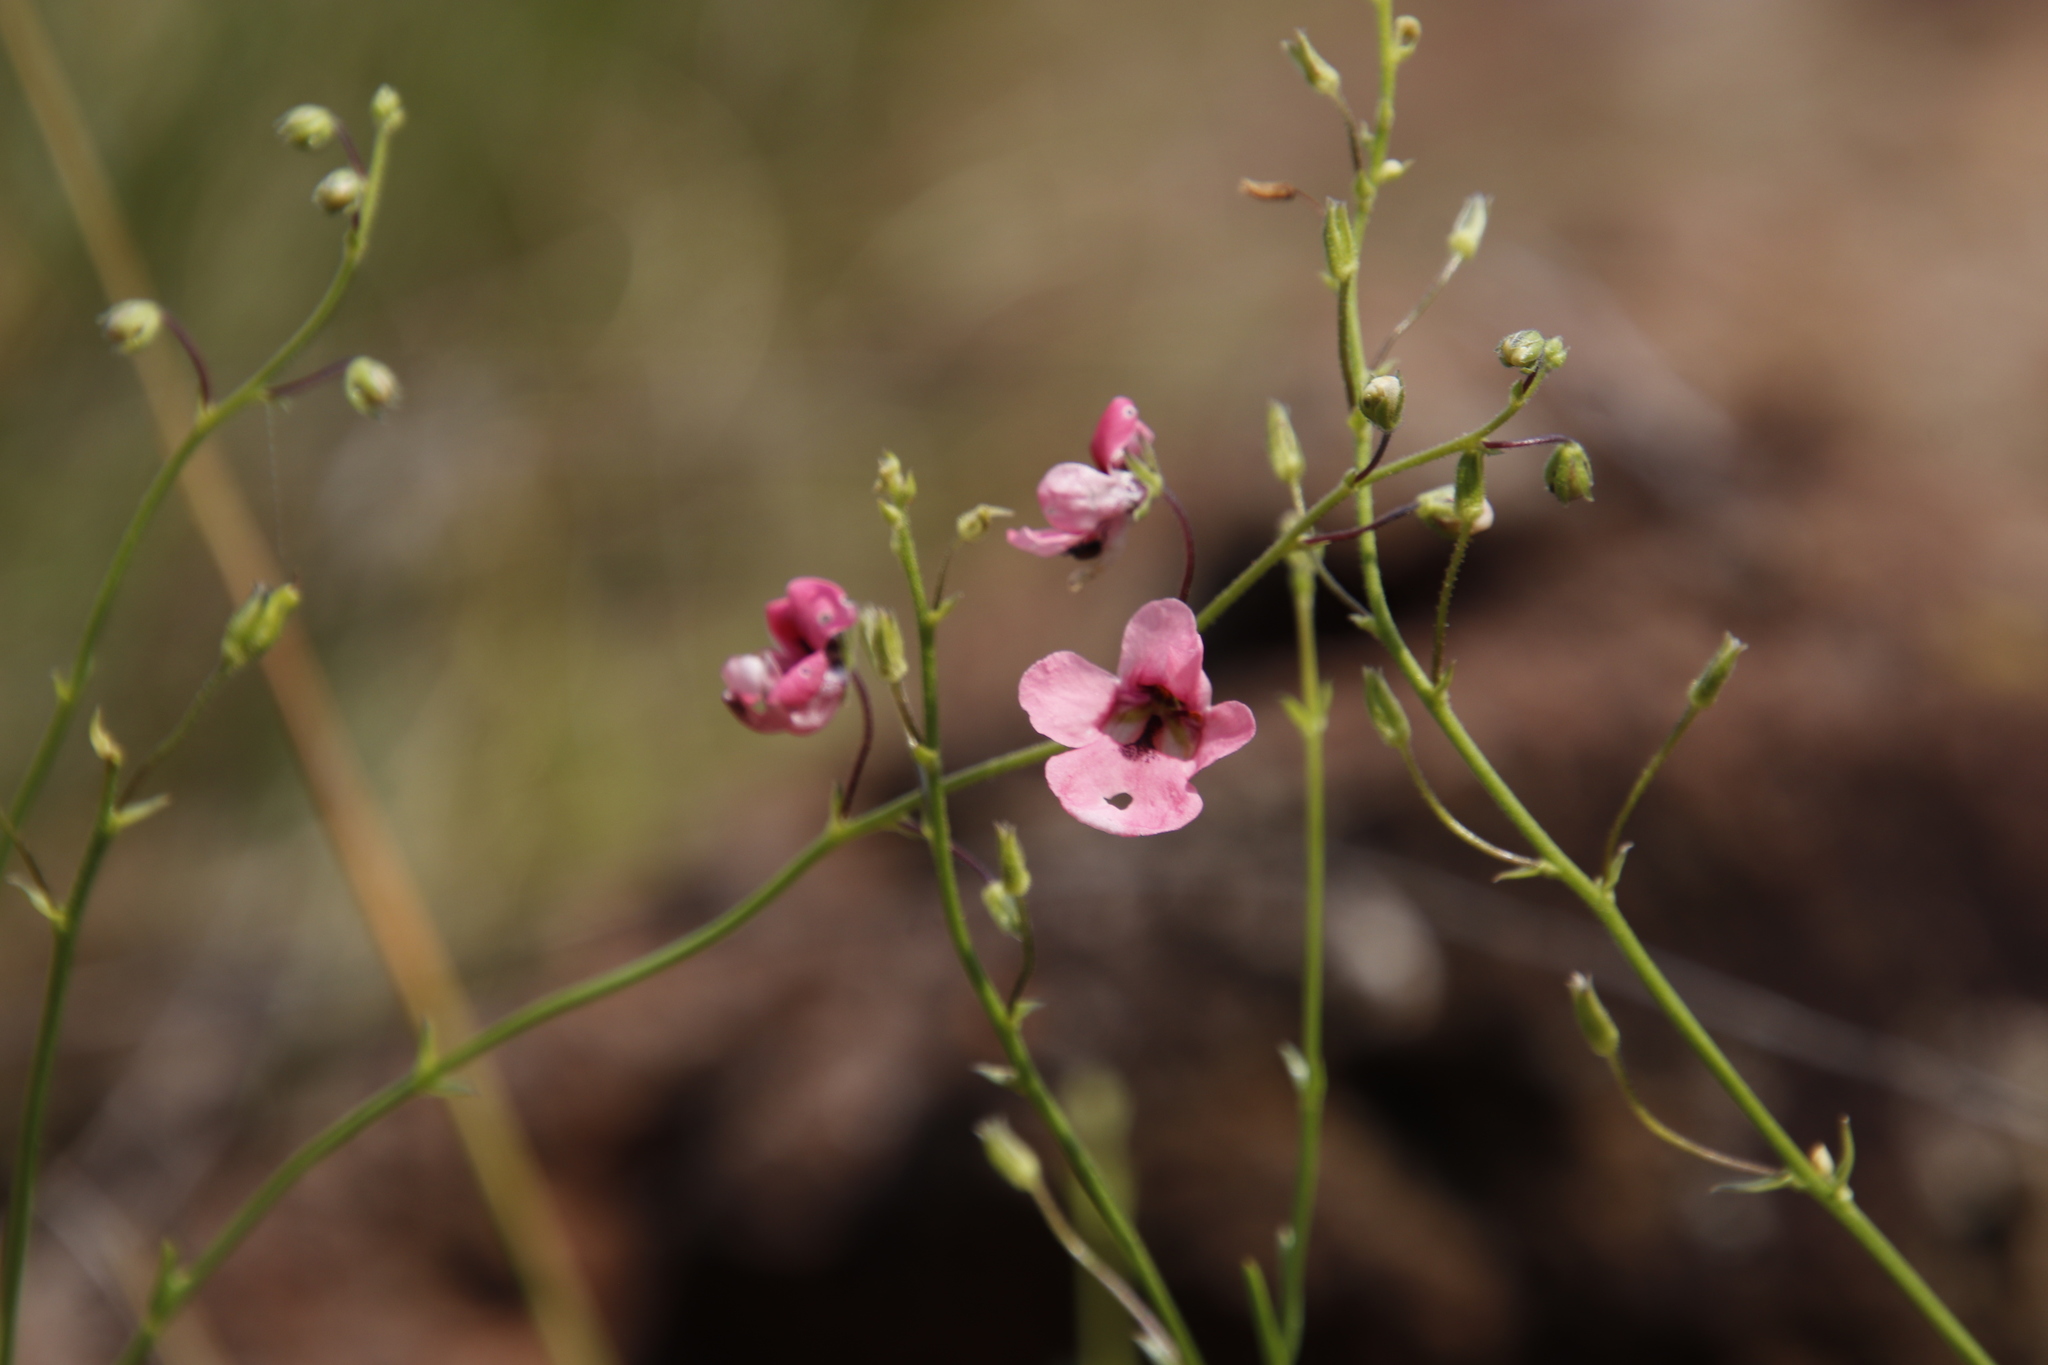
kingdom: Plantae
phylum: Tracheophyta
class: Magnoliopsida
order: Lamiales
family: Scrophulariaceae
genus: Diascia
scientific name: Diascia integerrima
